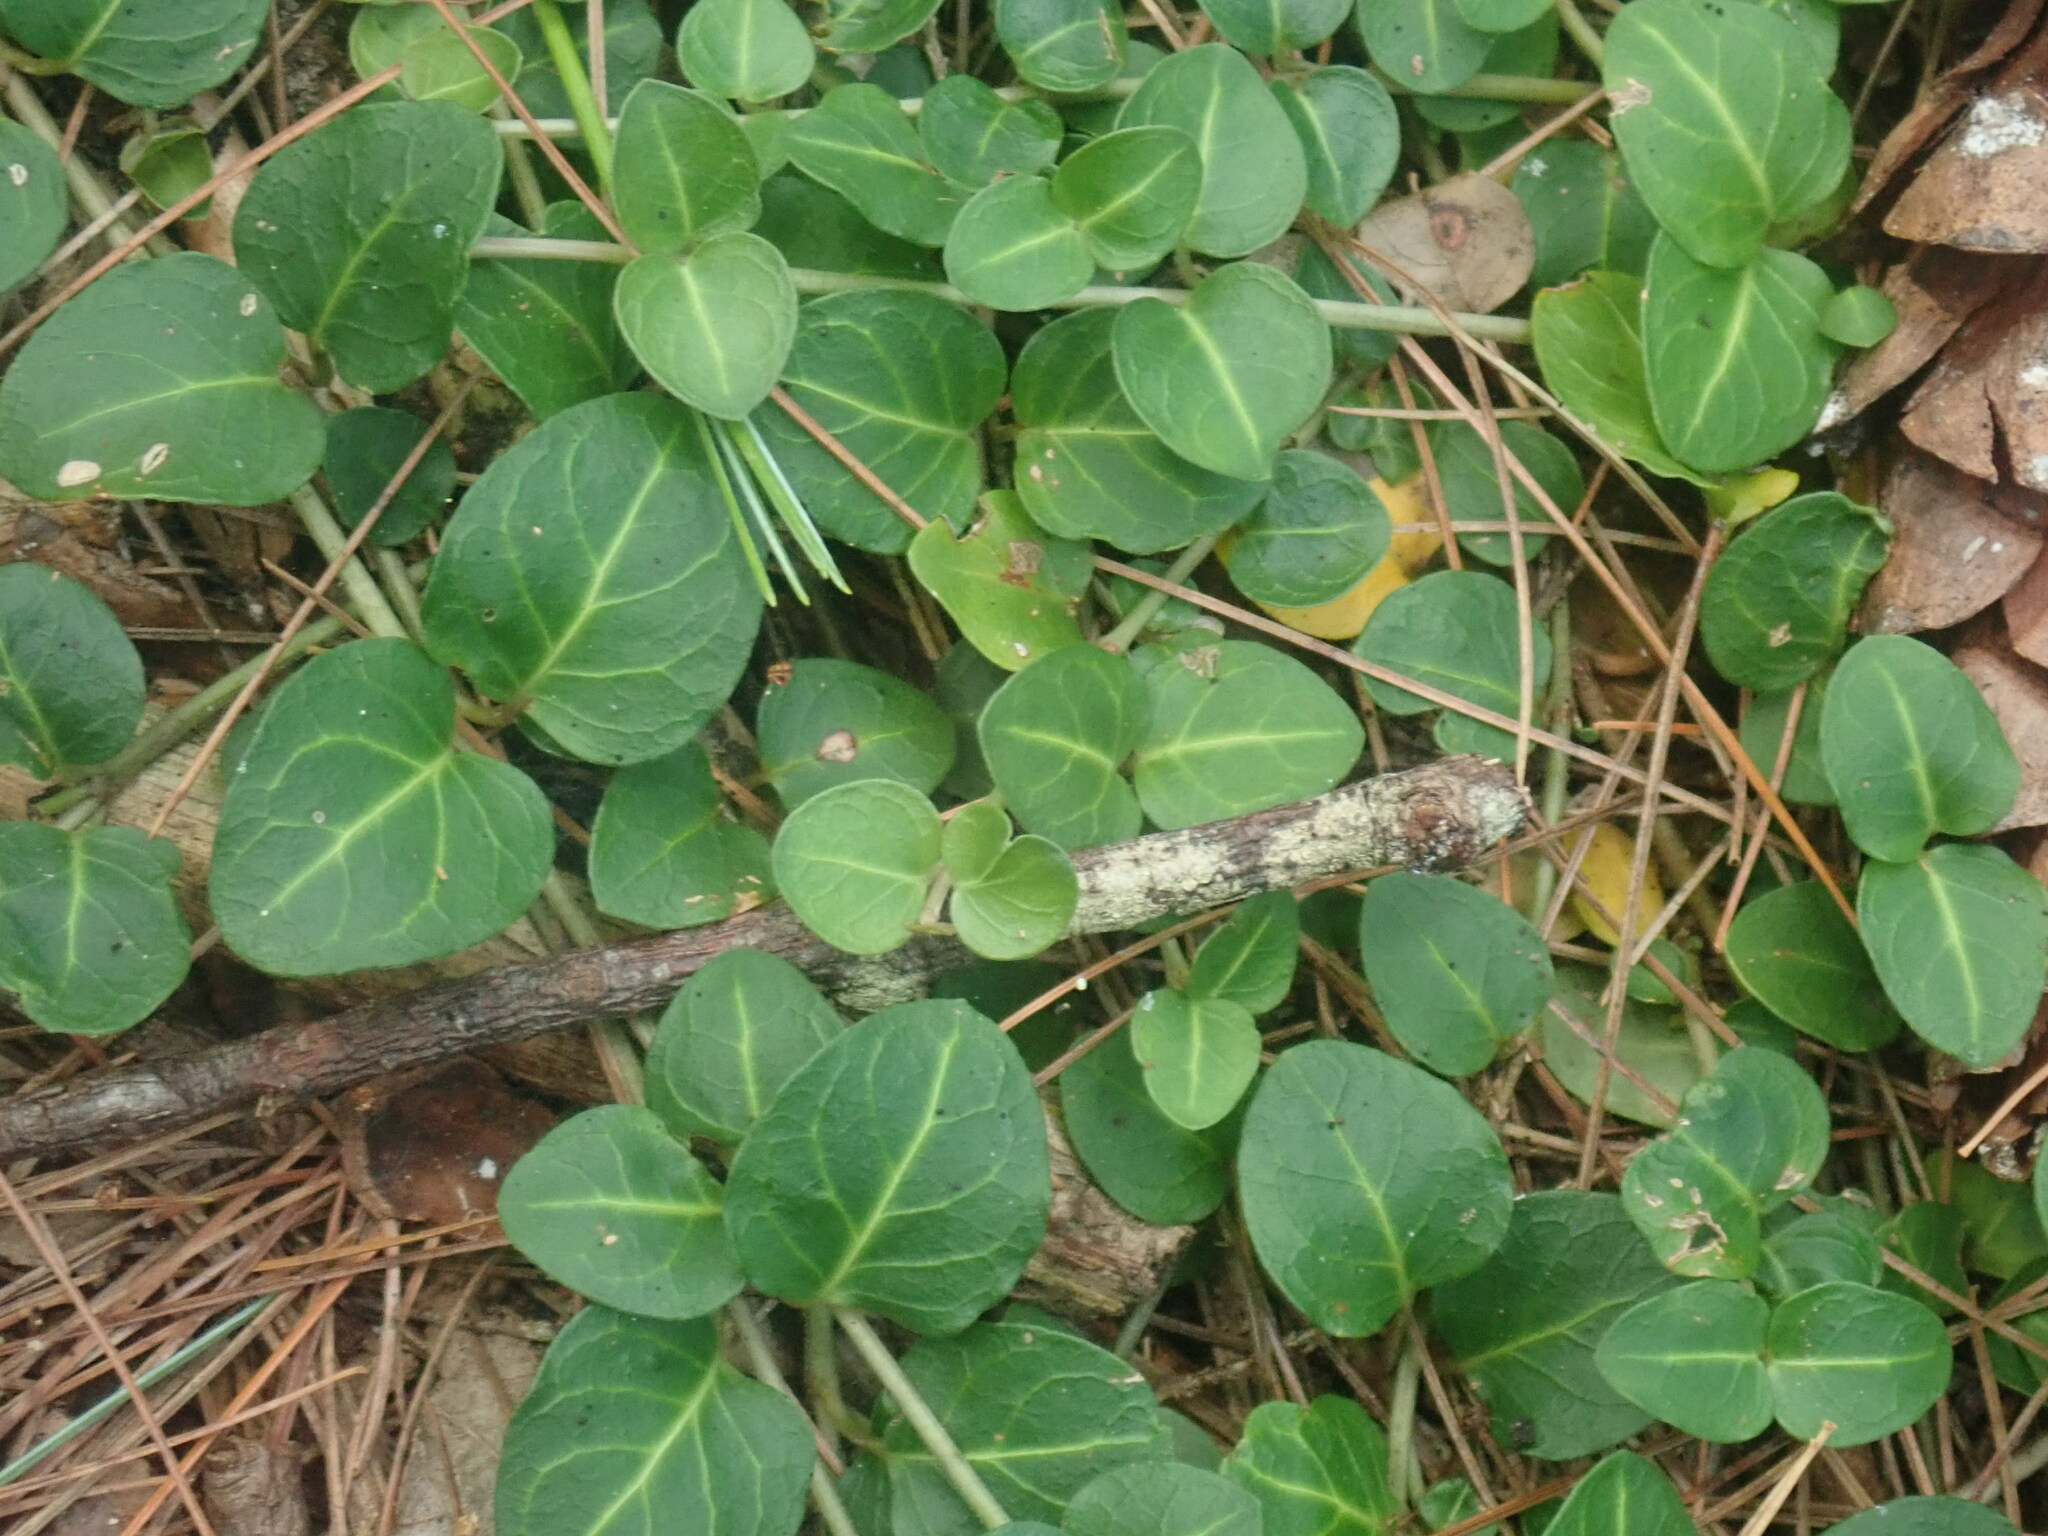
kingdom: Plantae
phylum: Tracheophyta
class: Magnoliopsida
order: Gentianales
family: Rubiaceae
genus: Mitchella
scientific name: Mitchella repens
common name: Partridge-berry
